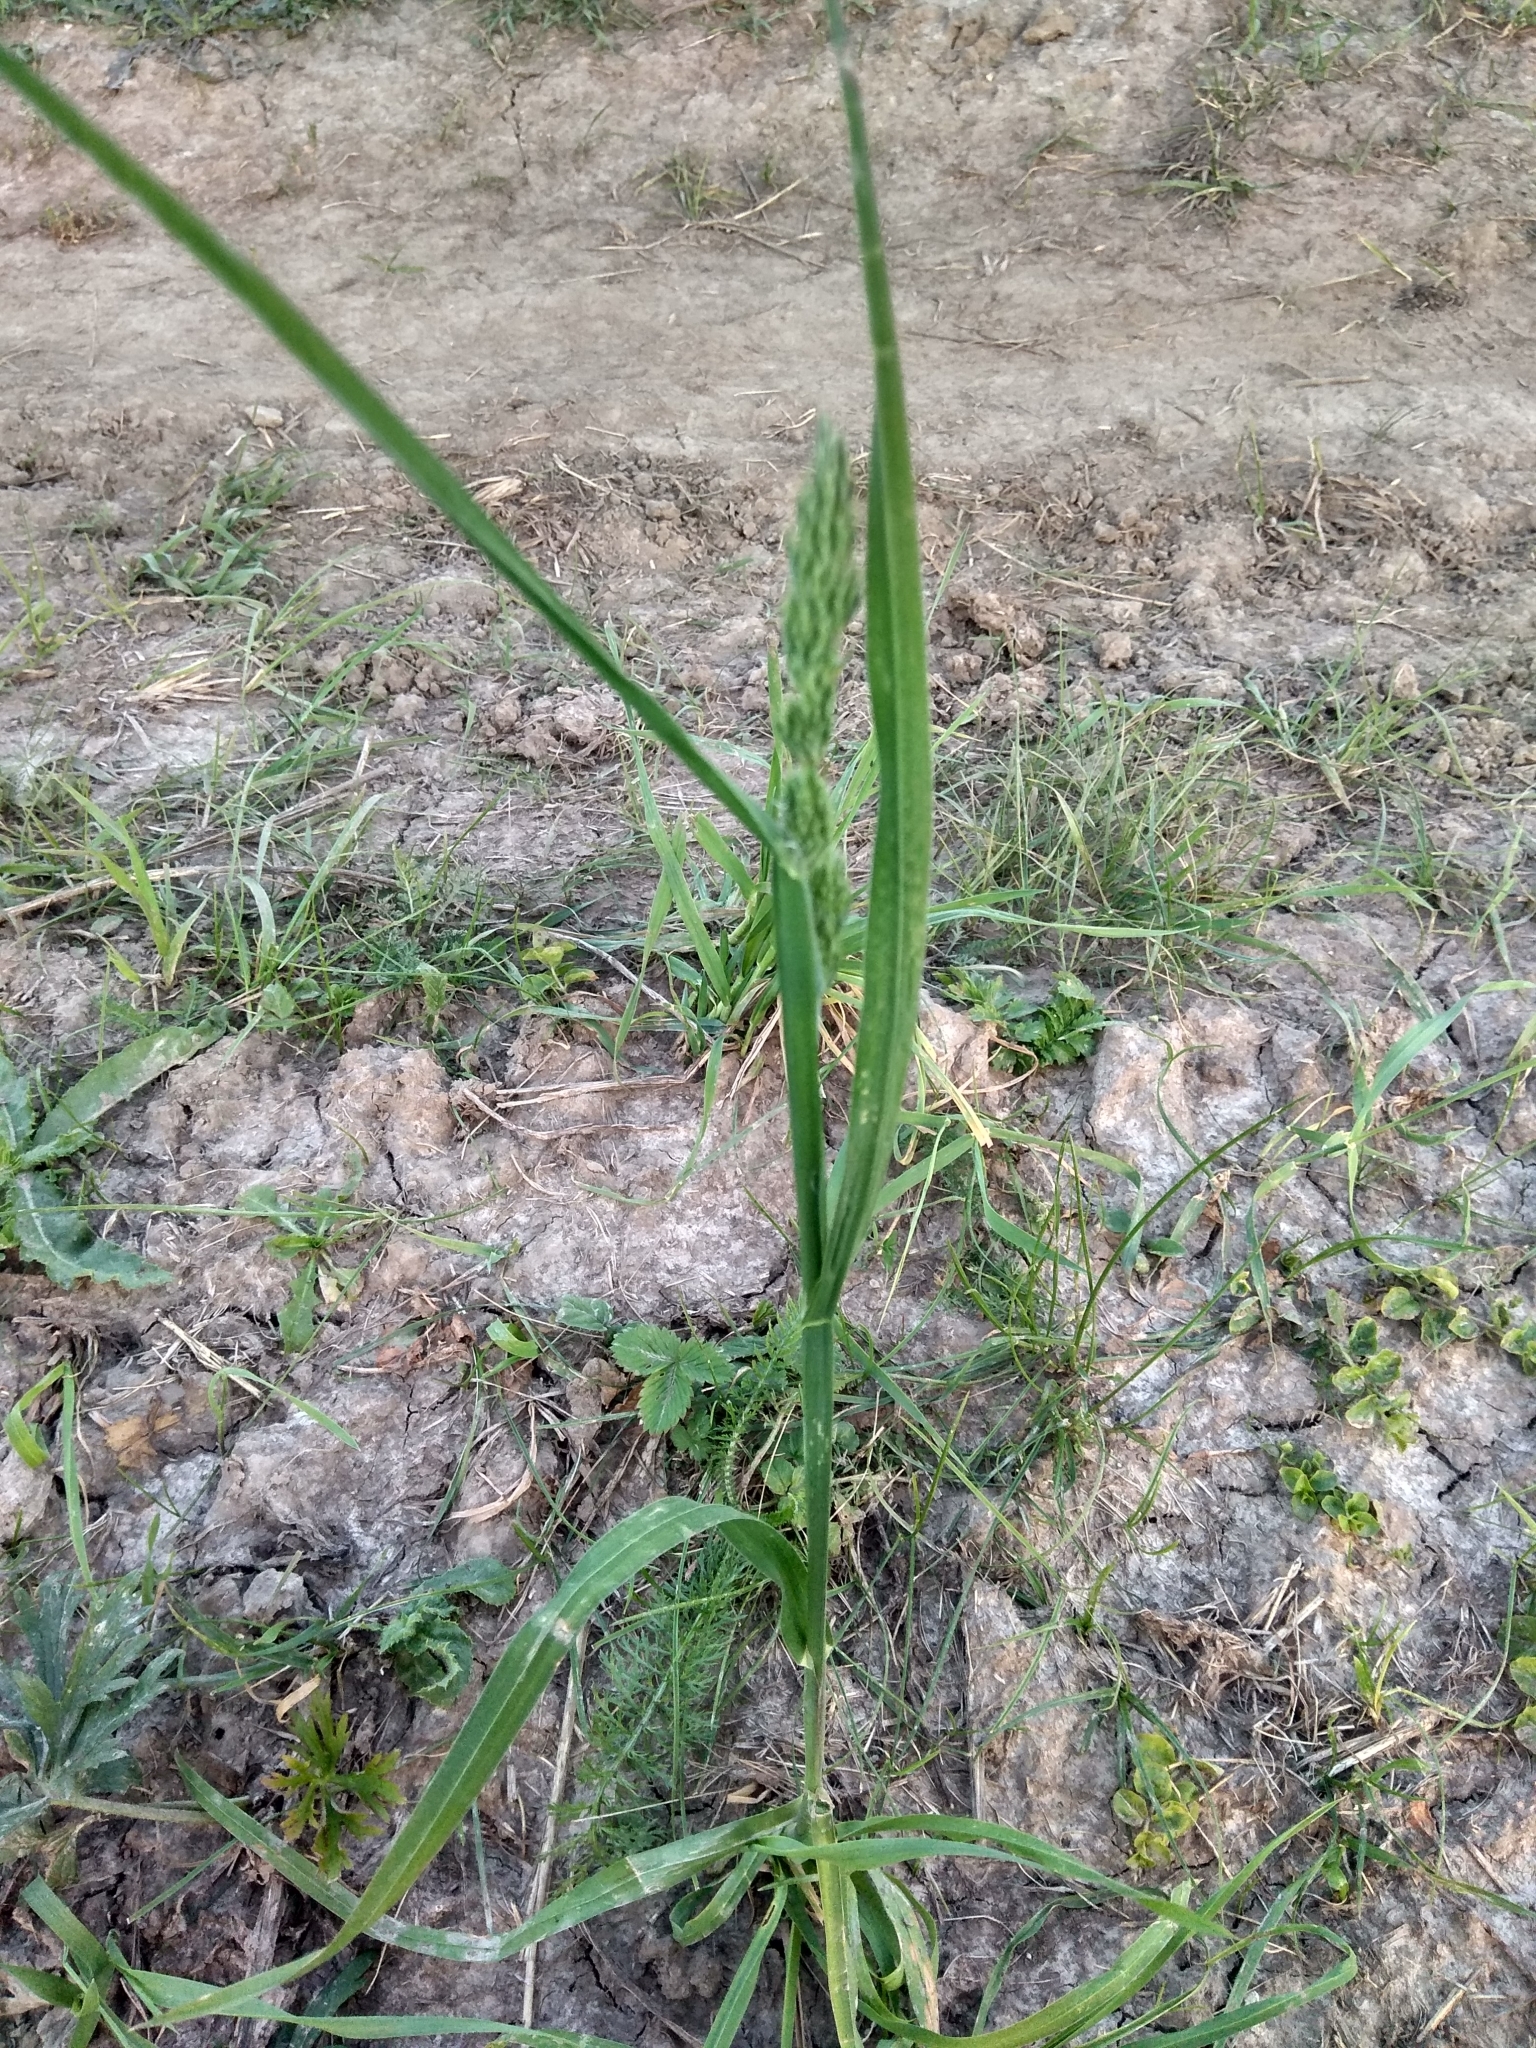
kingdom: Plantae
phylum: Tracheophyta
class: Liliopsida
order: Poales
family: Poaceae
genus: Dactylis
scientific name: Dactylis glomerata
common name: Orchardgrass
